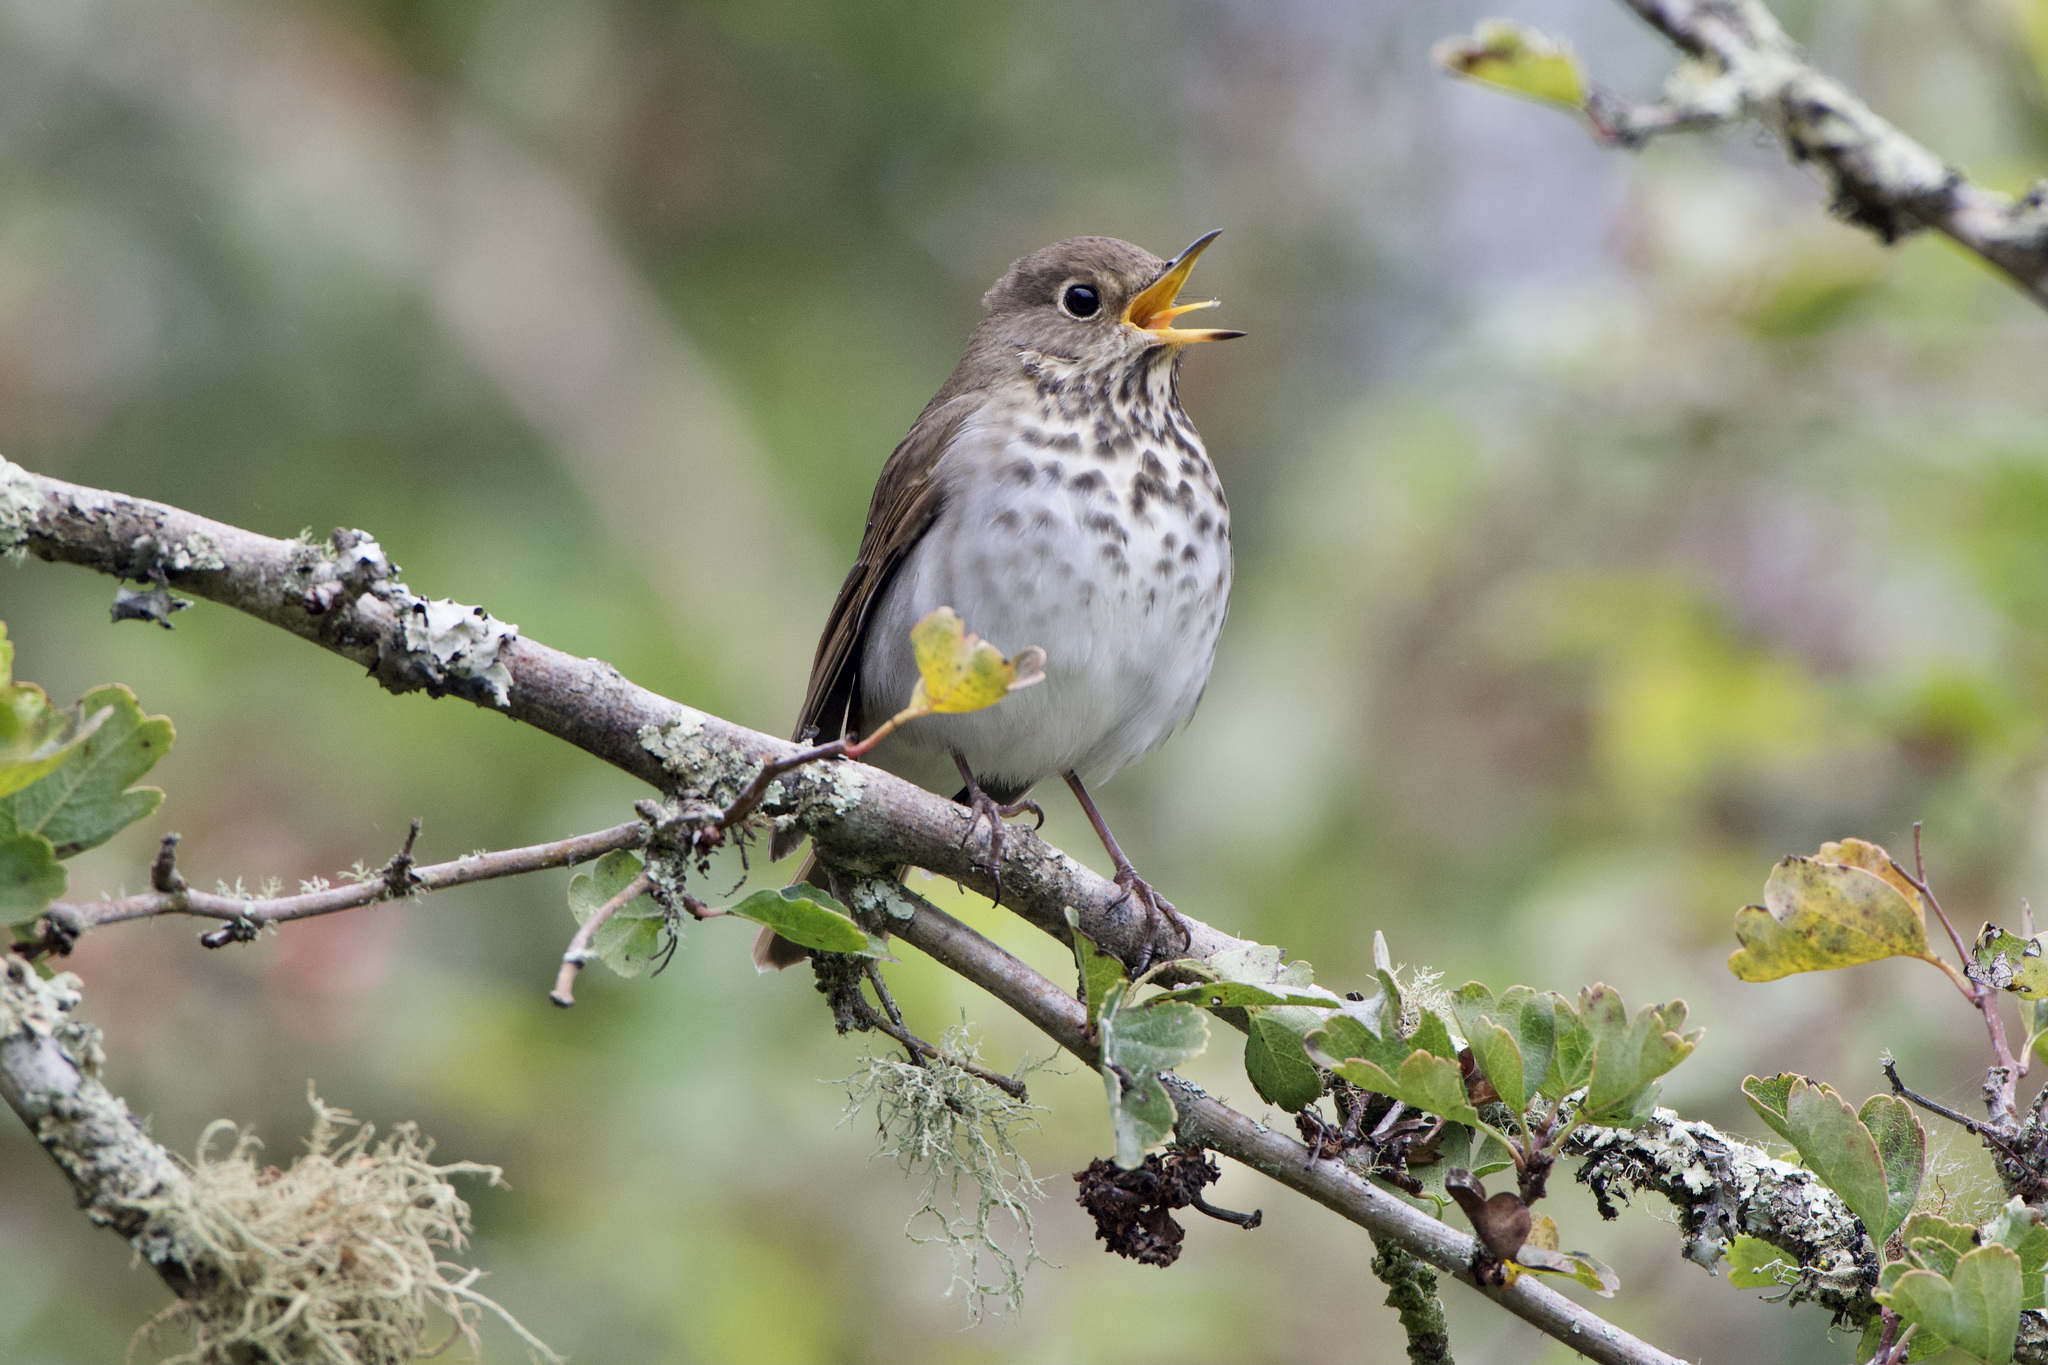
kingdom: Animalia
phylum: Chordata
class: Aves
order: Passeriformes
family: Turdidae
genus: Catharus
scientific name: Catharus guttatus
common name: Hermit thrush
